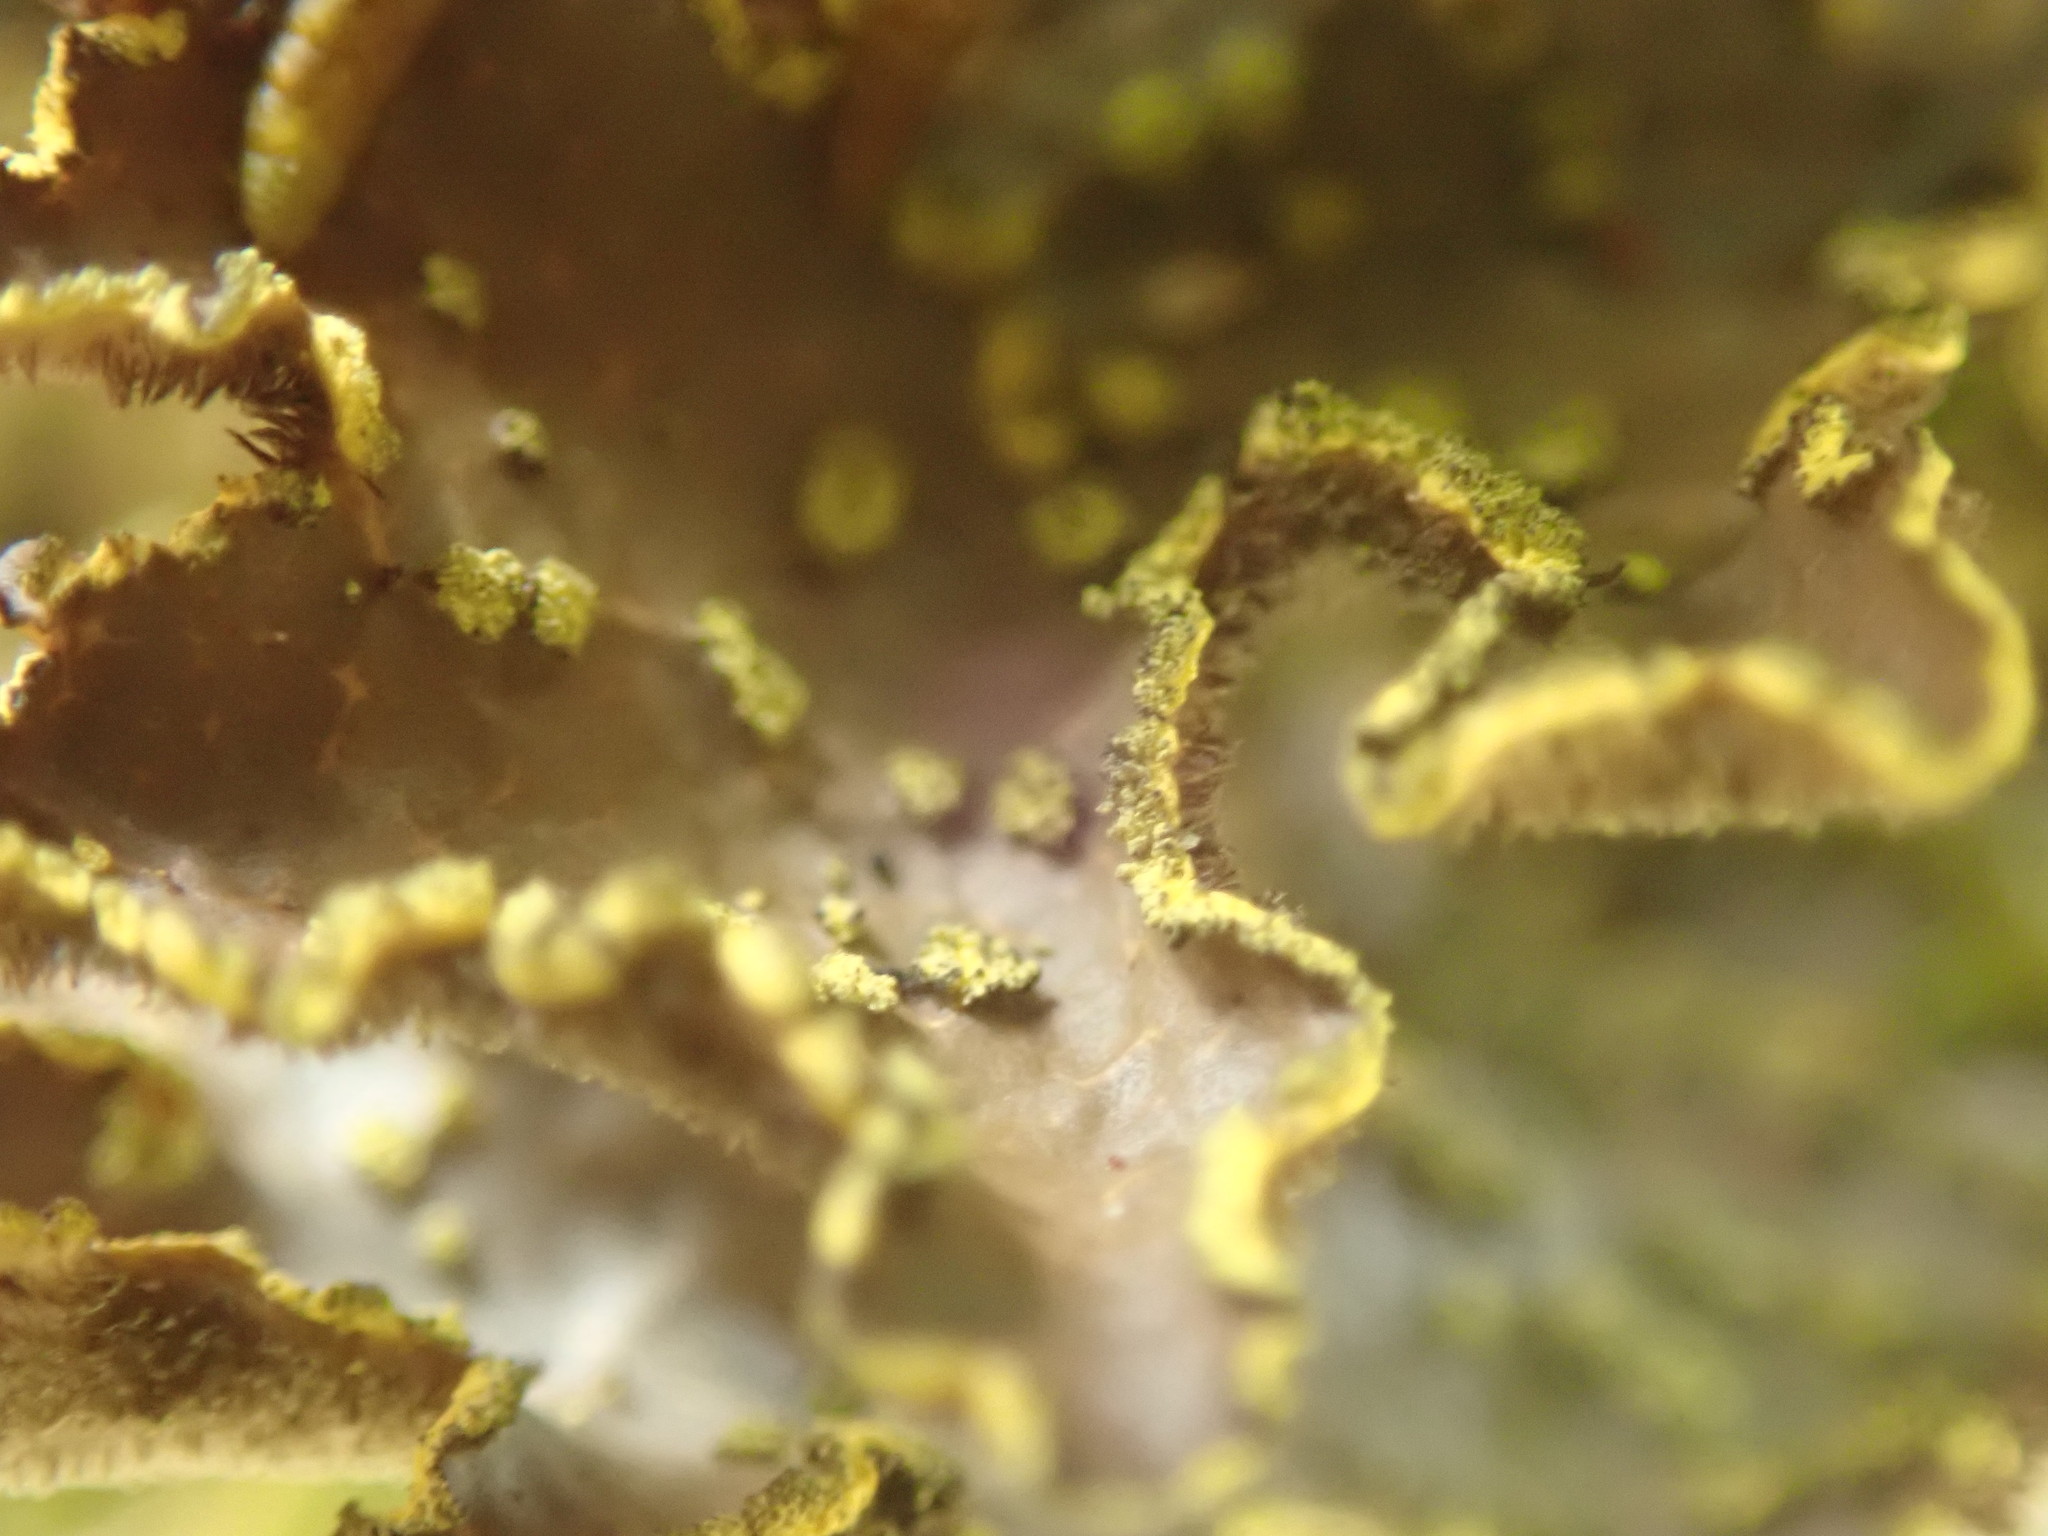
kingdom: Fungi
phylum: Ascomycota
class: Lecanoromycetes
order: Peltigerales
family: Lobariaceae
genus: Pseudocyphellaria
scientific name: Pseudocyphellaria citrina
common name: Golden specklebelly
